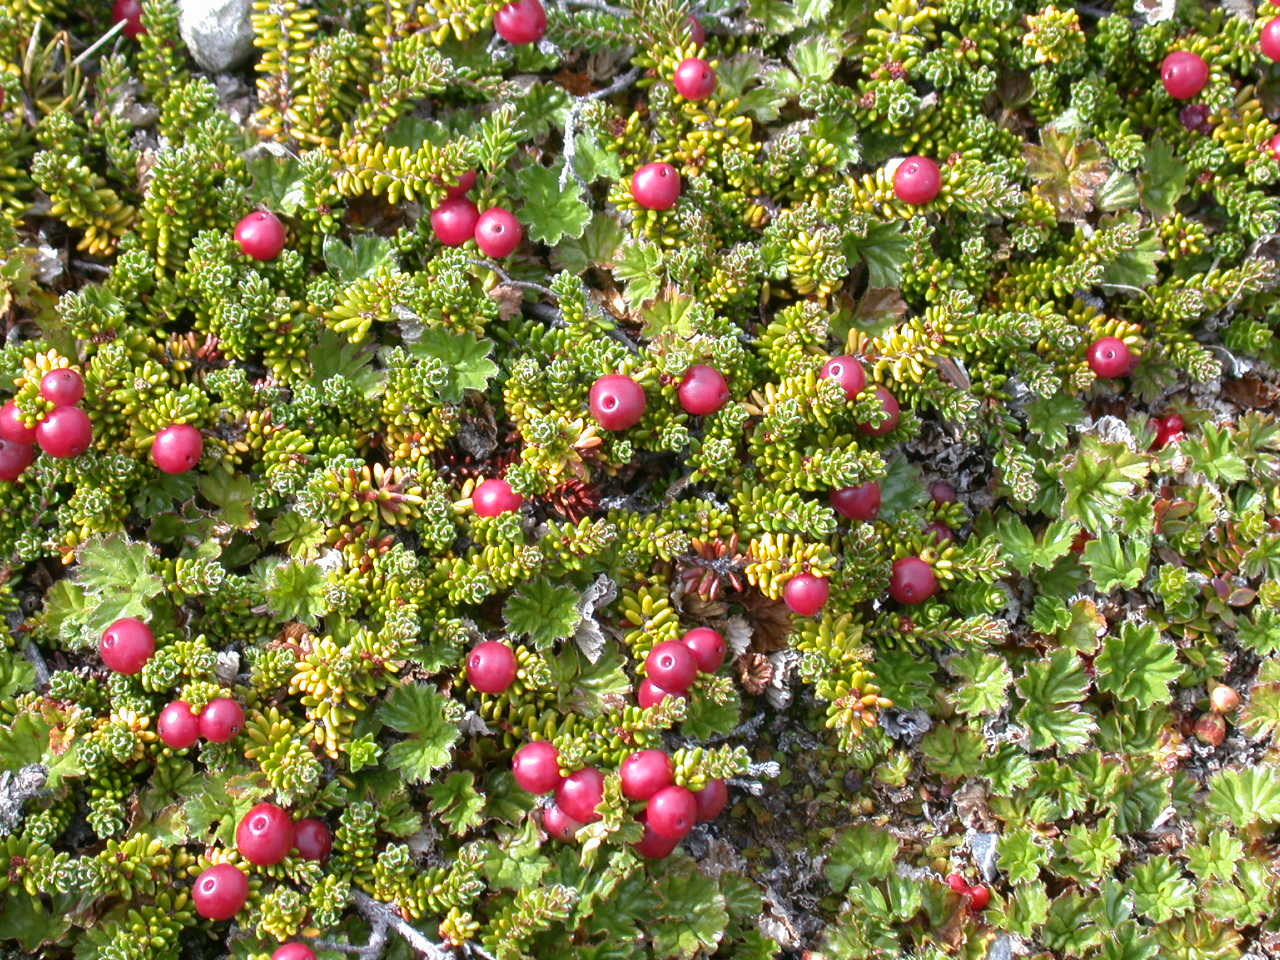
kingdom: Plantae
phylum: Tracheophyta
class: Magnoliopsida
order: Ericales
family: Ericaceae
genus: Empetrum
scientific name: Empetrum rubrum
